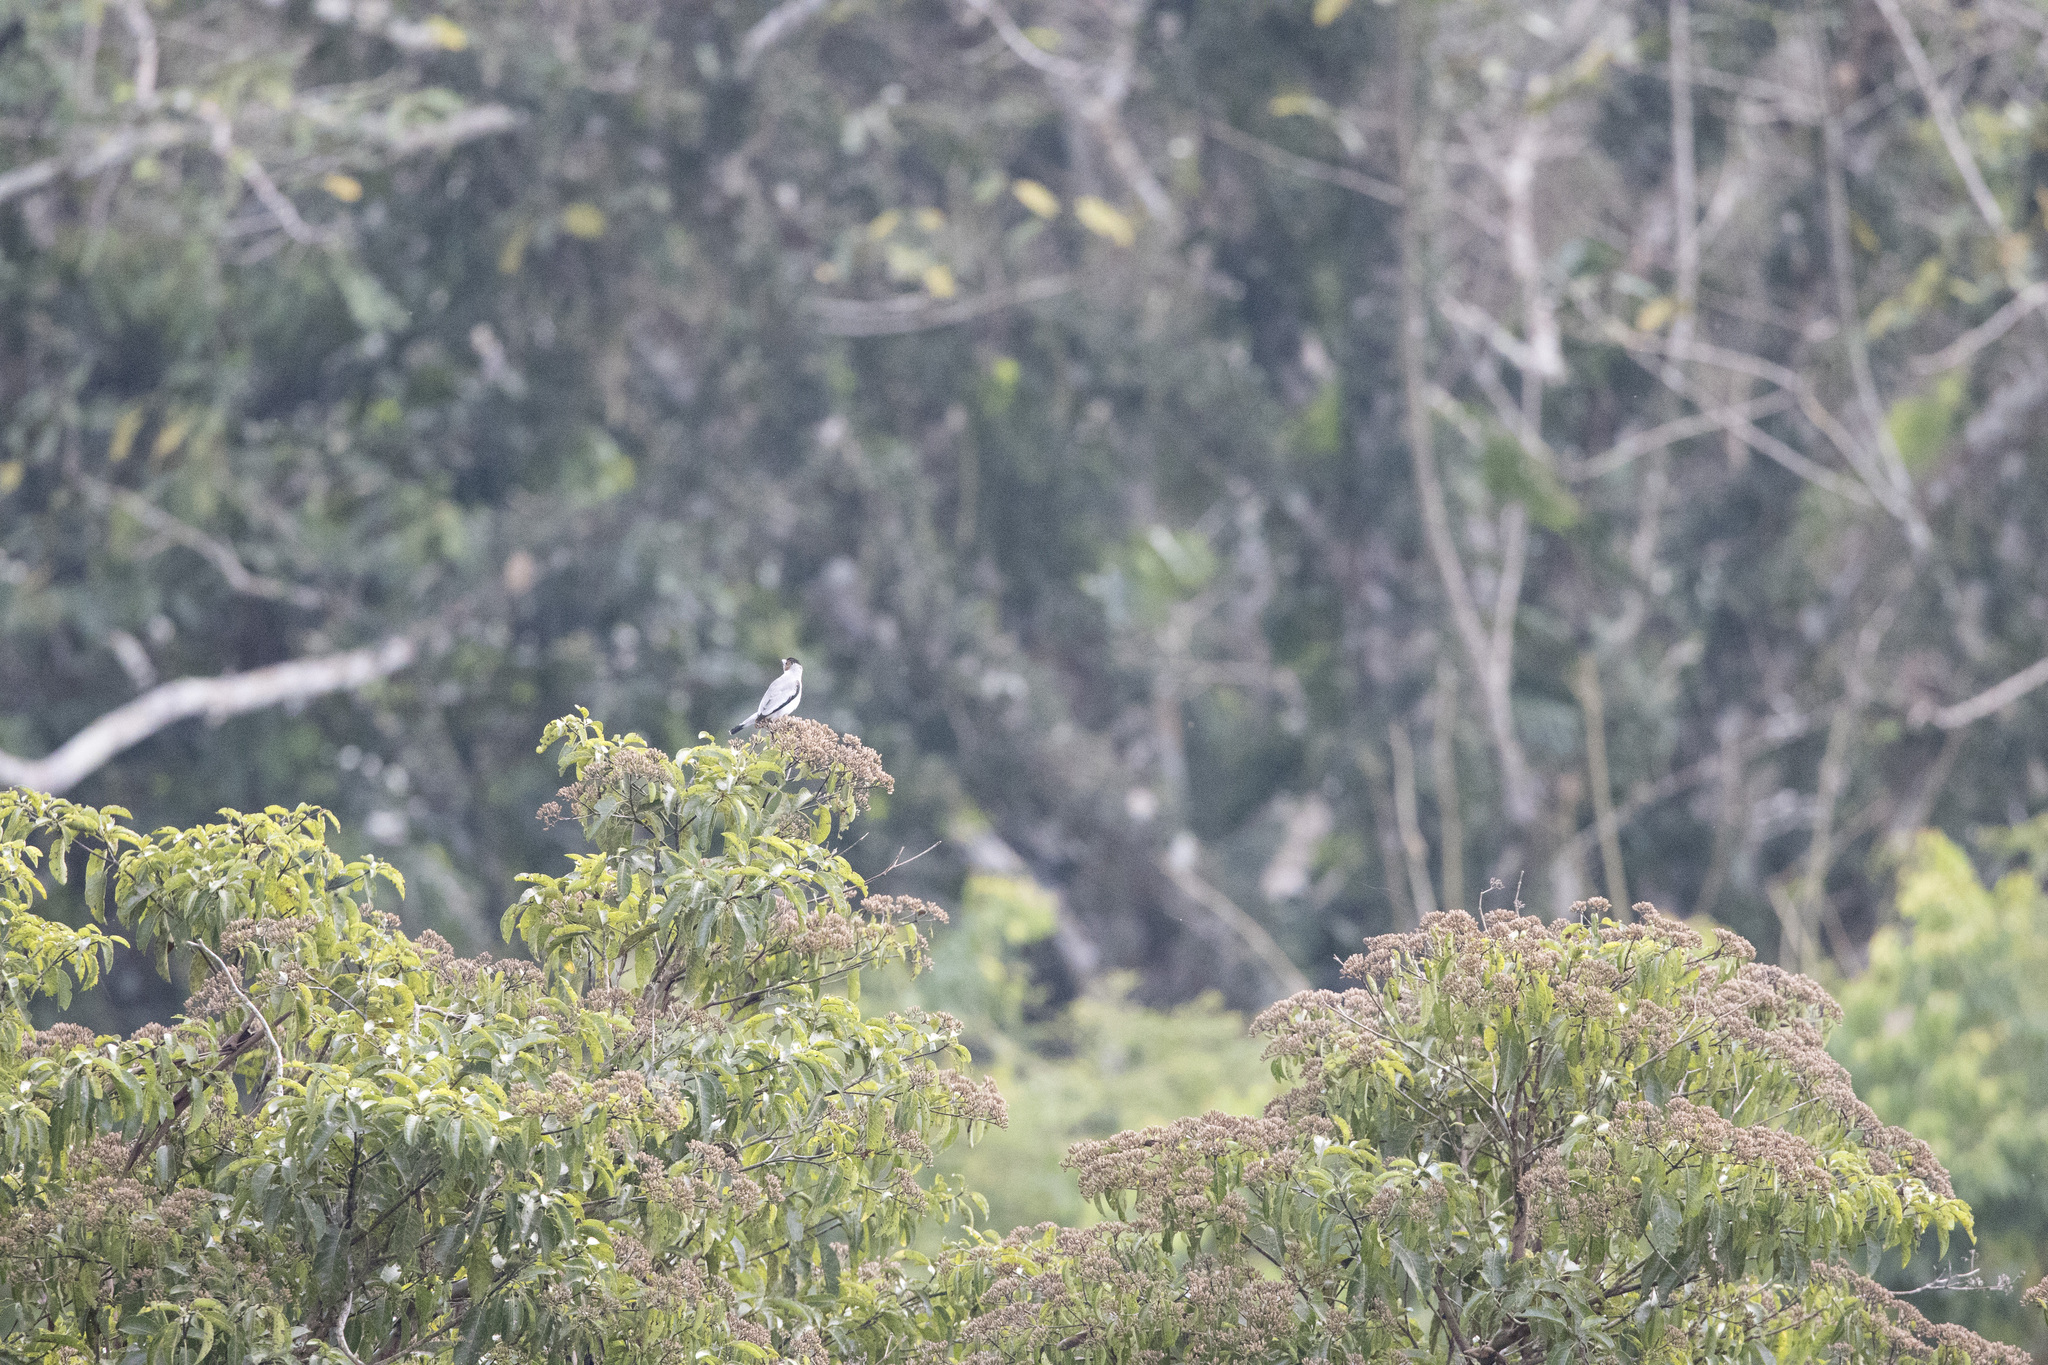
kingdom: Animalia
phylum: Chordata
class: Aves
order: Passeriformes
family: Cotingidae
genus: Tityra
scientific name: Tityra inquisitor
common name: Black-crowned tityra
